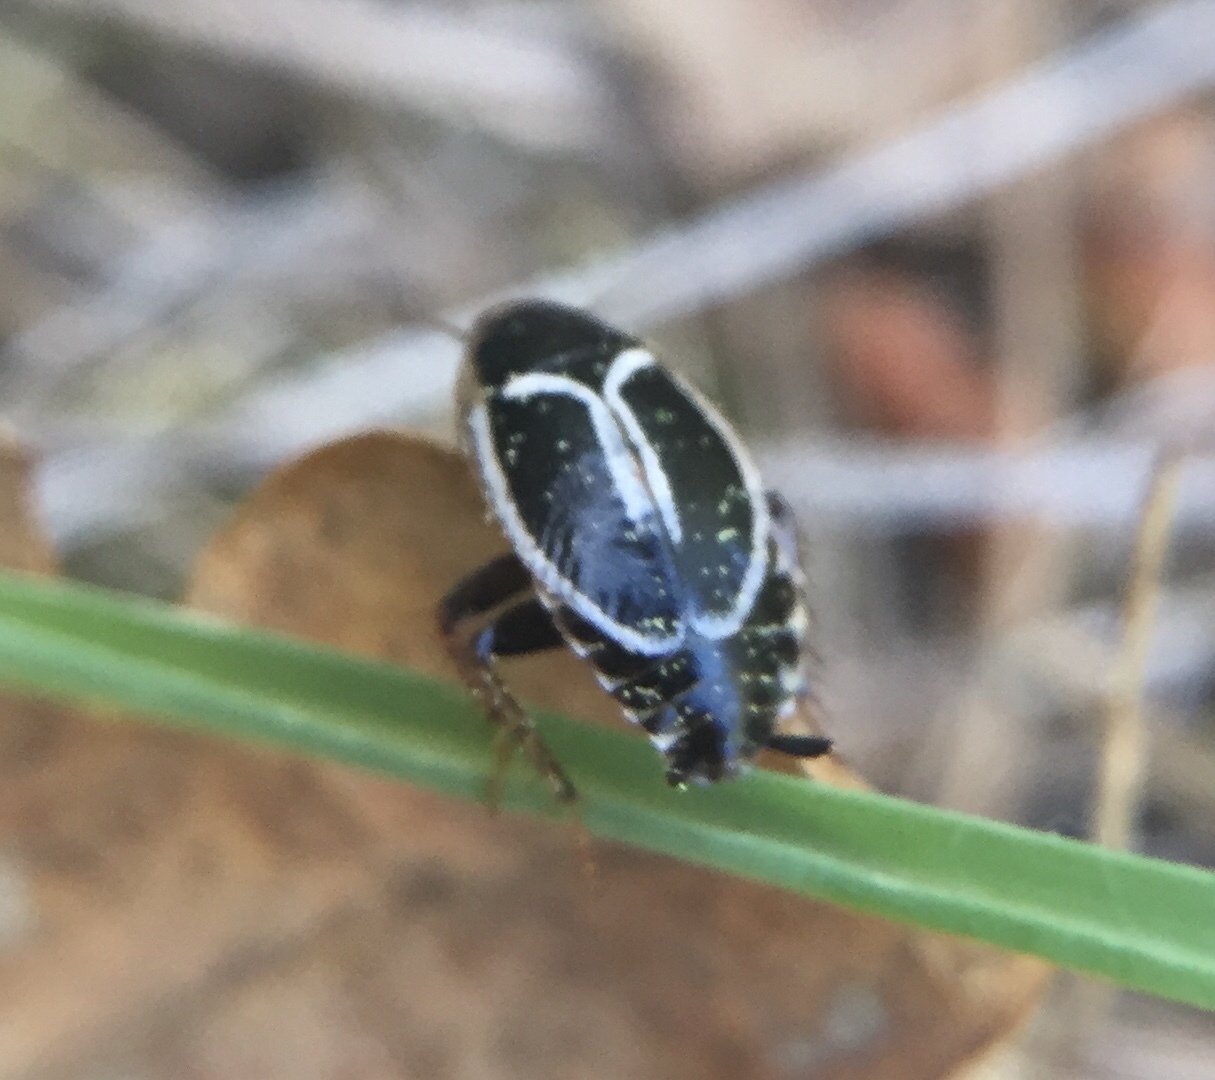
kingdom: Animalia
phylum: Arthropoda
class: Insecta
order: Blattodea
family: Ectobiidae
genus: Phyllodromica
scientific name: Phyllodromica marginata
